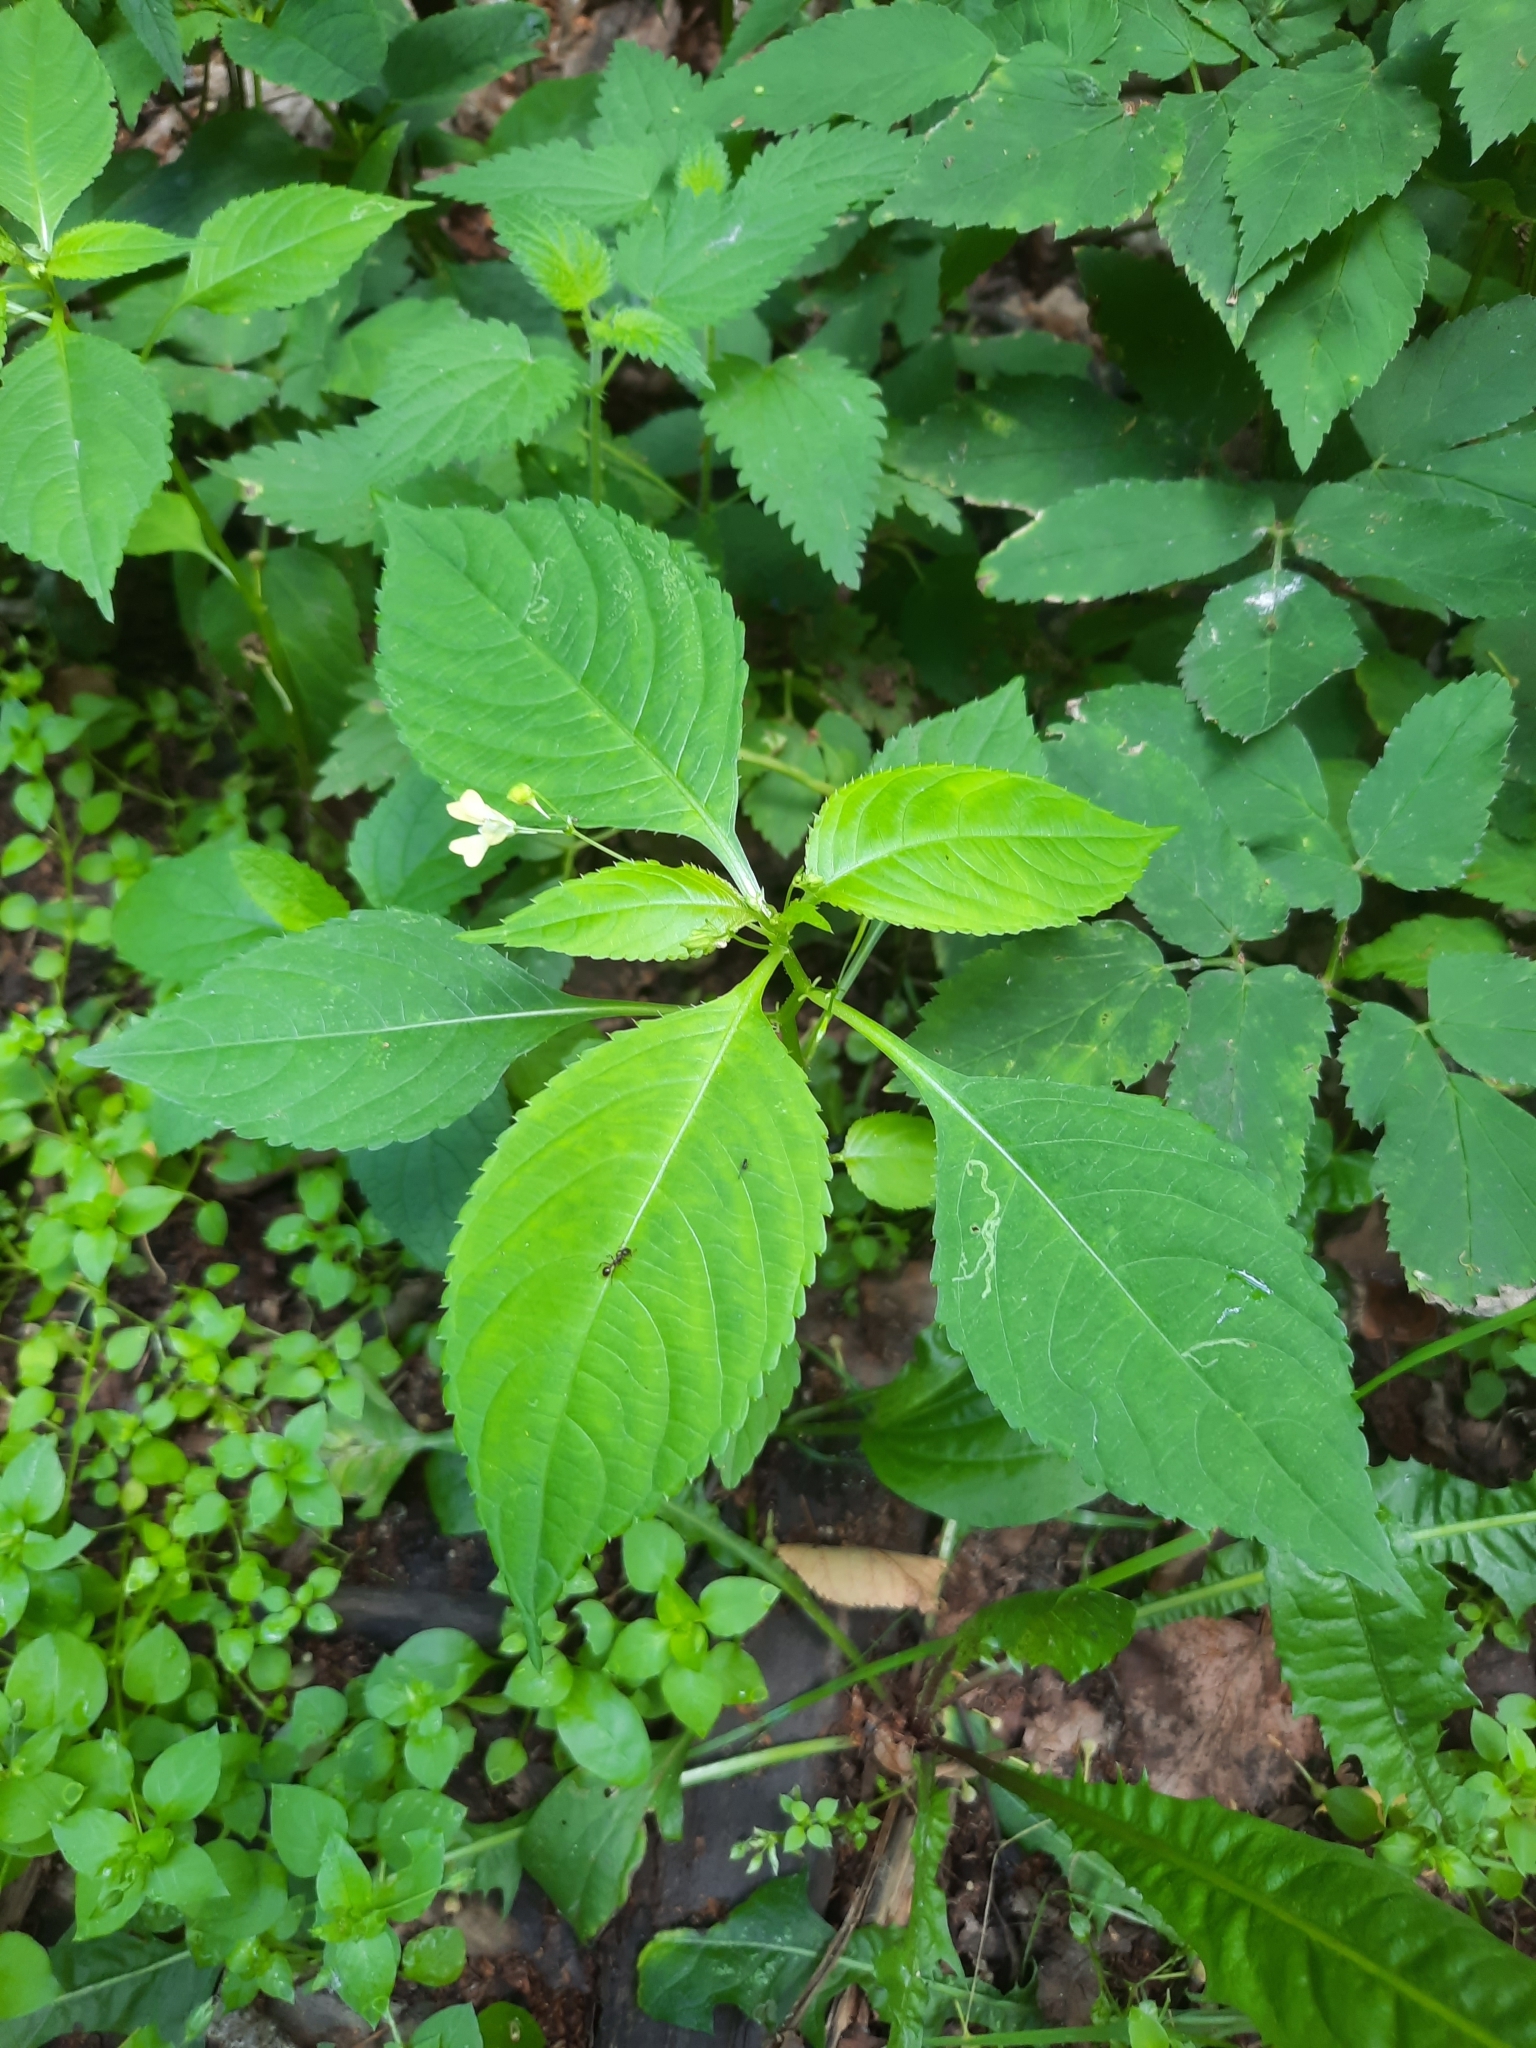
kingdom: Plantae
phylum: Tracheophyta
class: Magnoliopsida
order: Ericales
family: Balsaminaceae
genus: Impatiens
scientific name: Impatiens parviflora
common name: Small balsam
